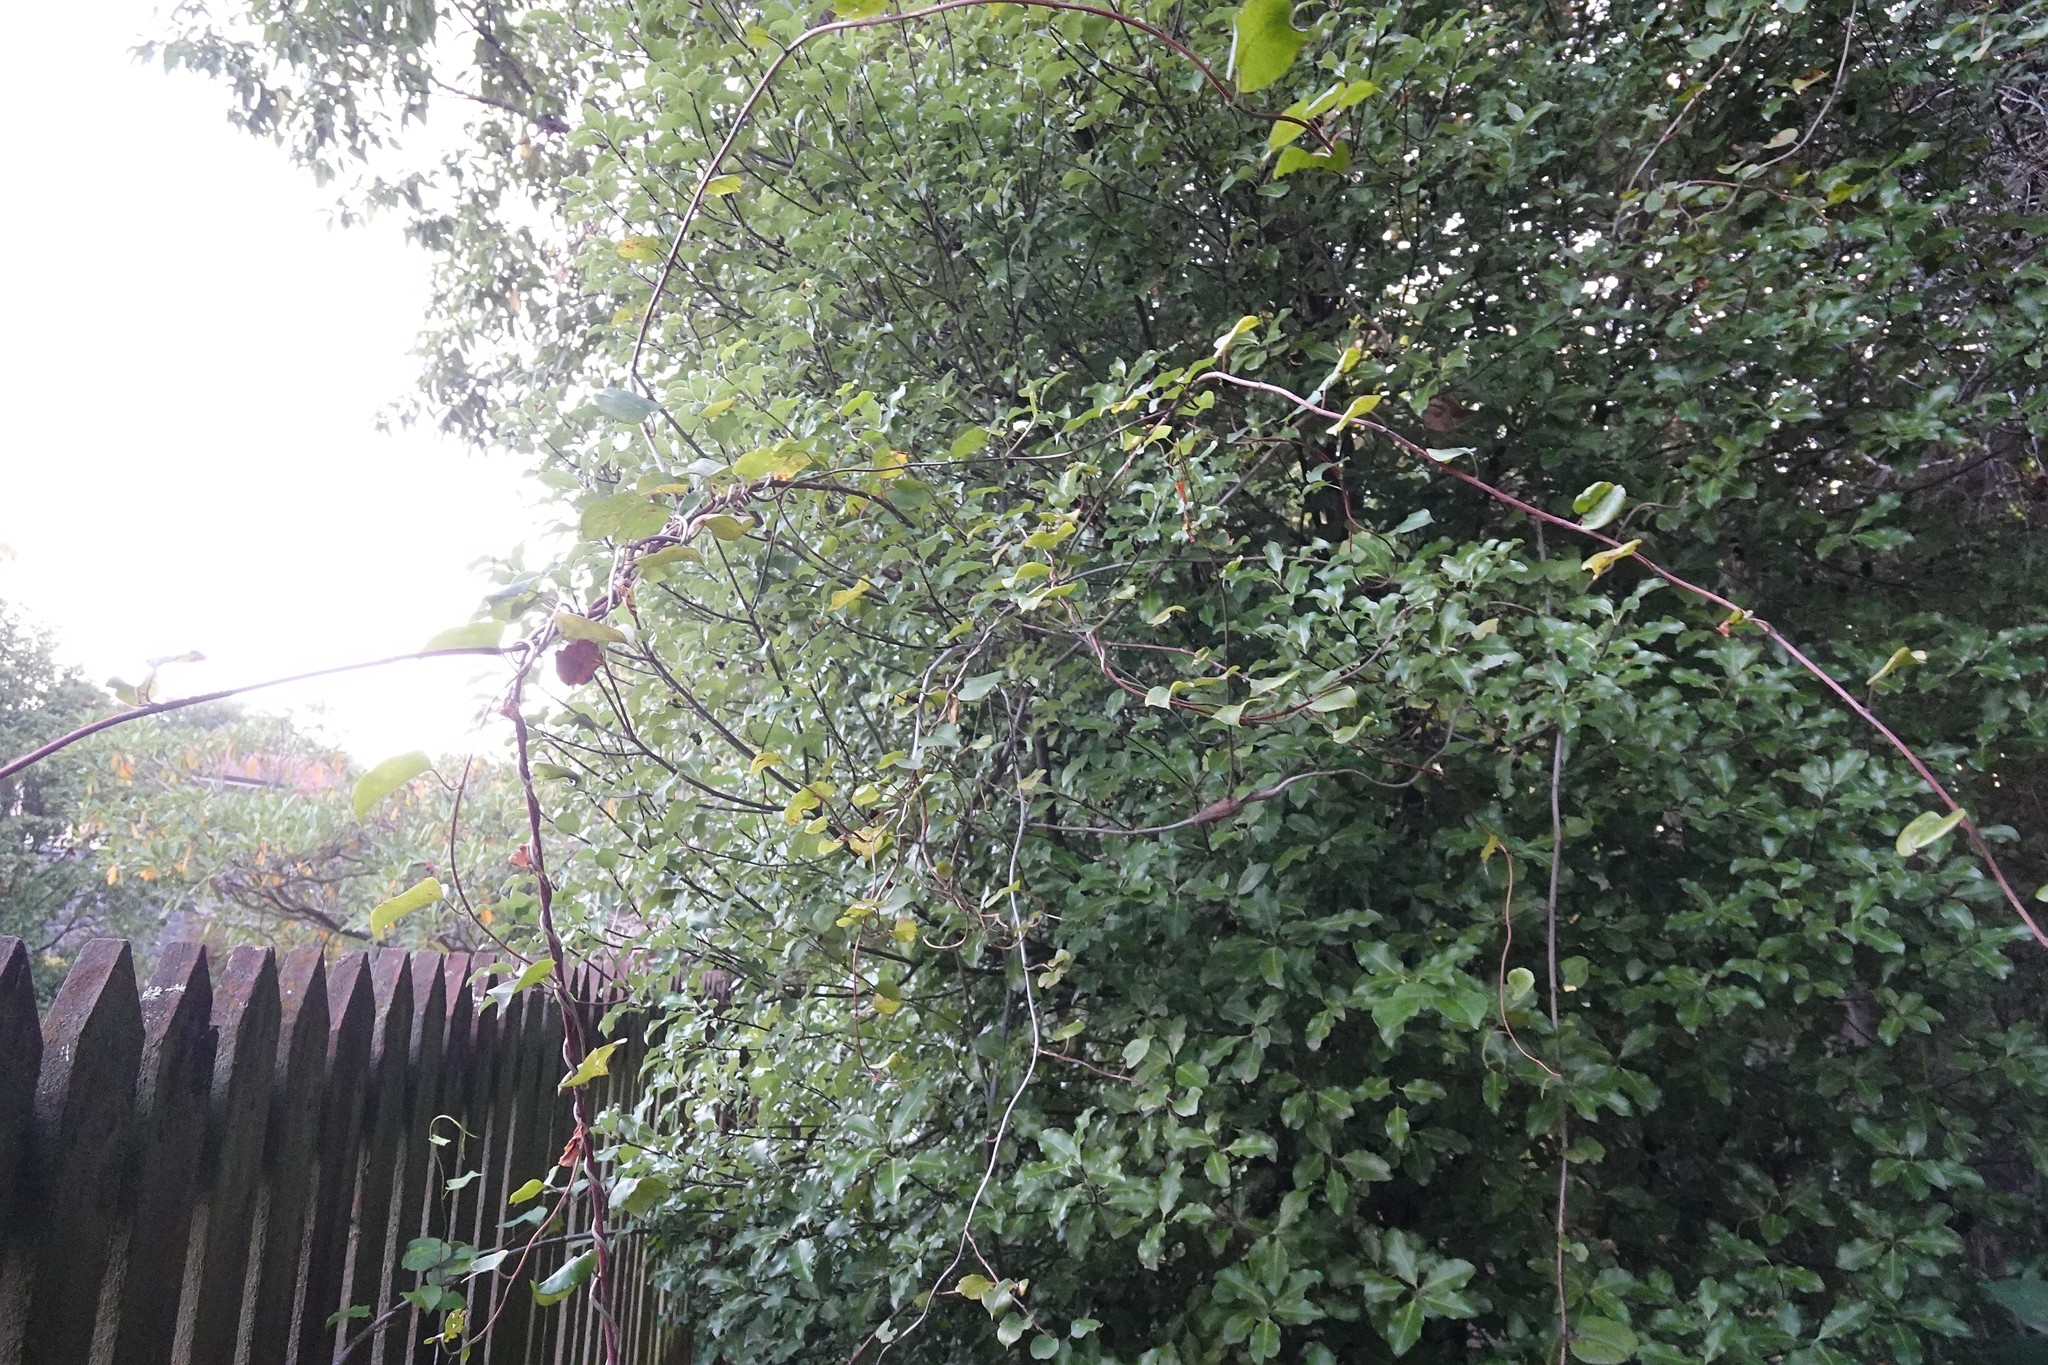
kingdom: Animalia
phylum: Arthropoda
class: Insecta
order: Lepidoptera
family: Thyrididae
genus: Morova
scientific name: Morova subfasciata
